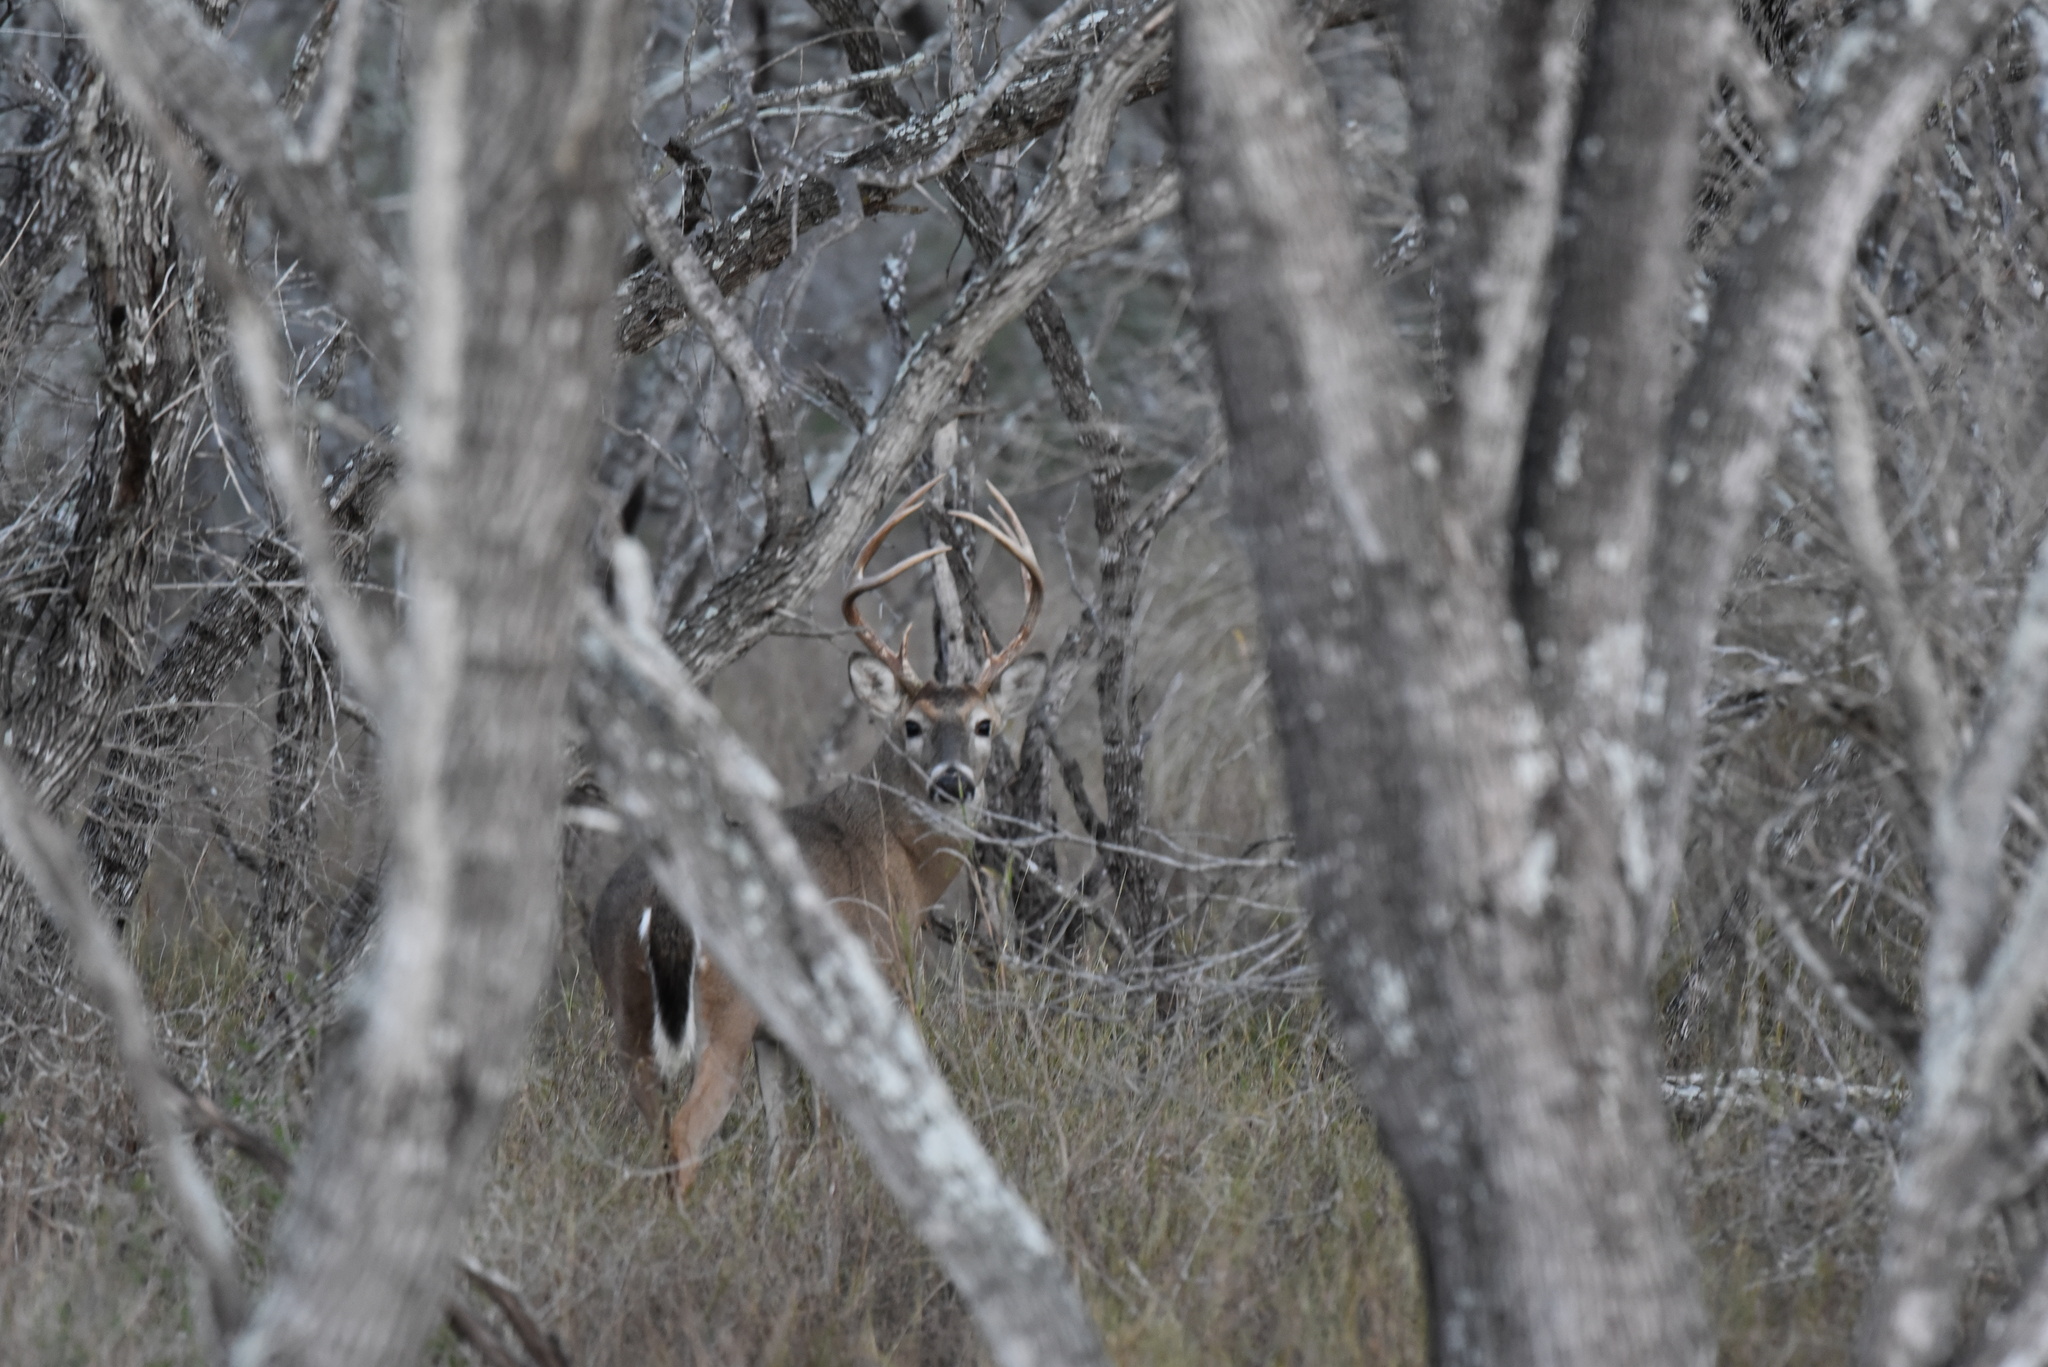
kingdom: Animalia
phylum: Chordata
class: Mammalia
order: Artiodactyla
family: Cervidae
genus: Odocoileus
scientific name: Odocoileus virginianus
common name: White-tailed deer
